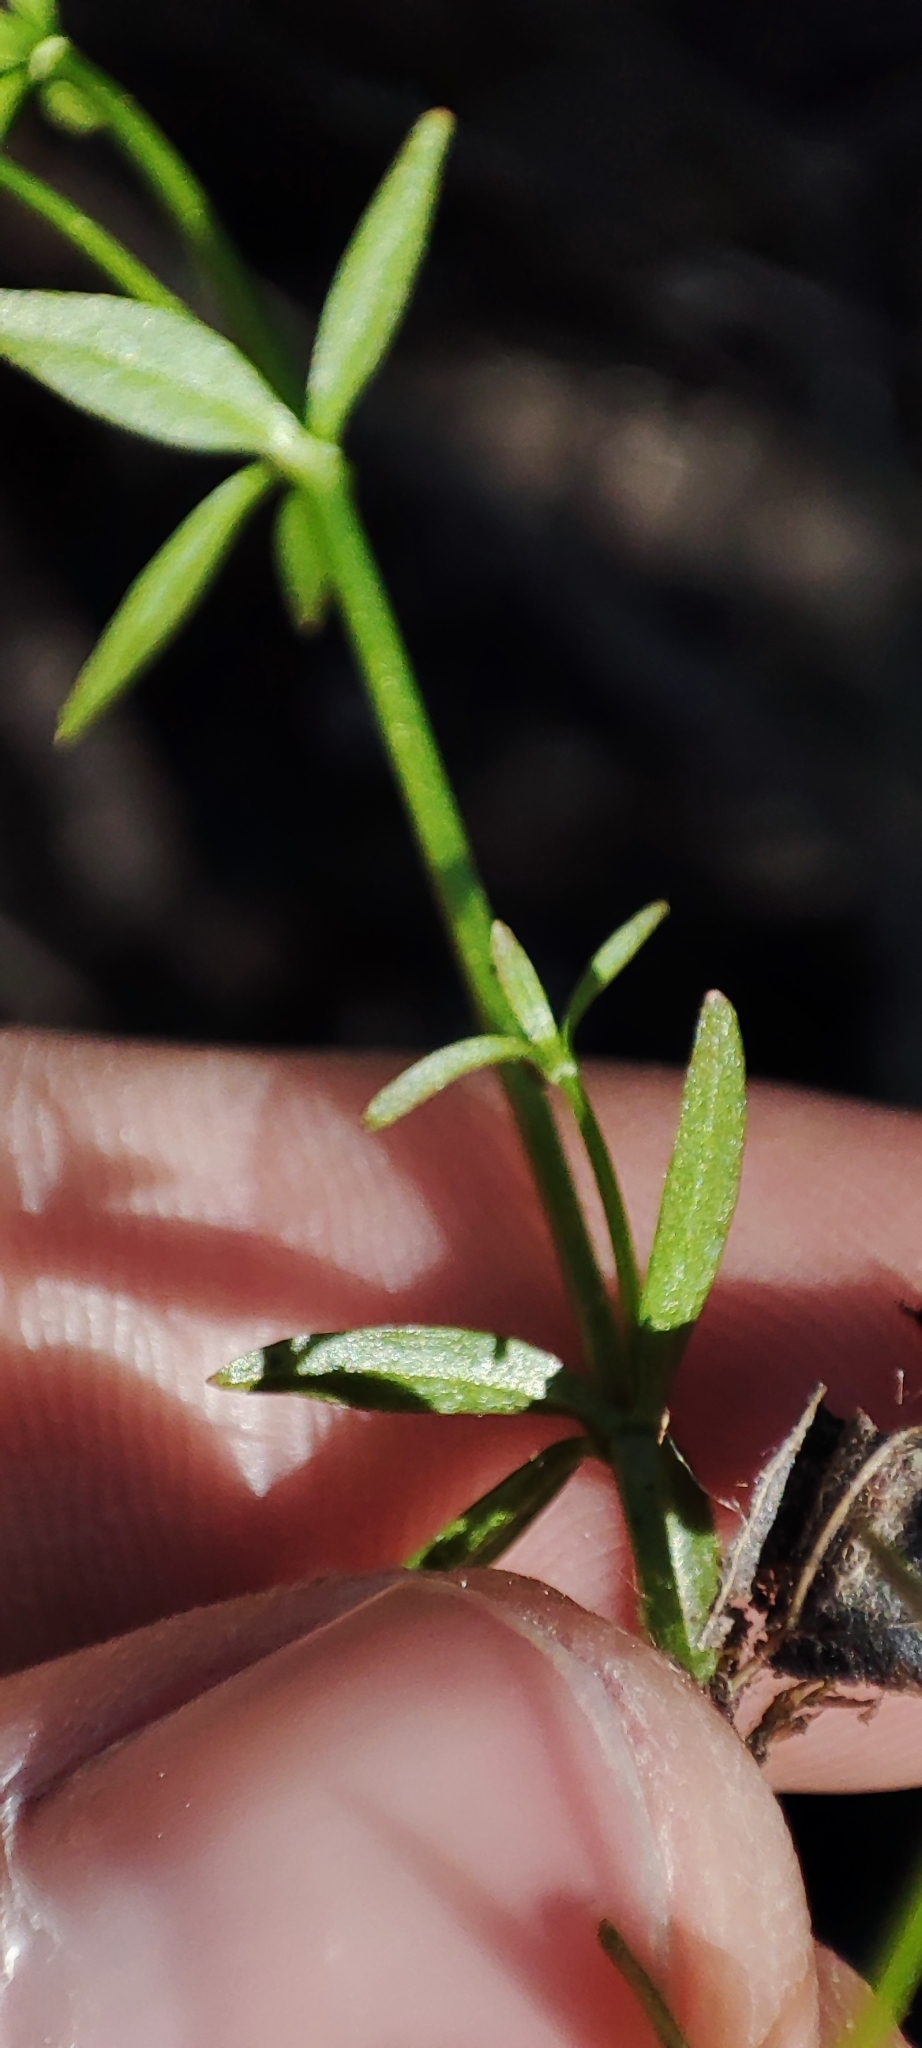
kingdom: Plantae
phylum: Tracheophyta
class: Magnoliopsida
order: Gentianales
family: Rubiaceae
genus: Galium
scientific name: Galium palustre
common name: Common marsh-bedstraw
